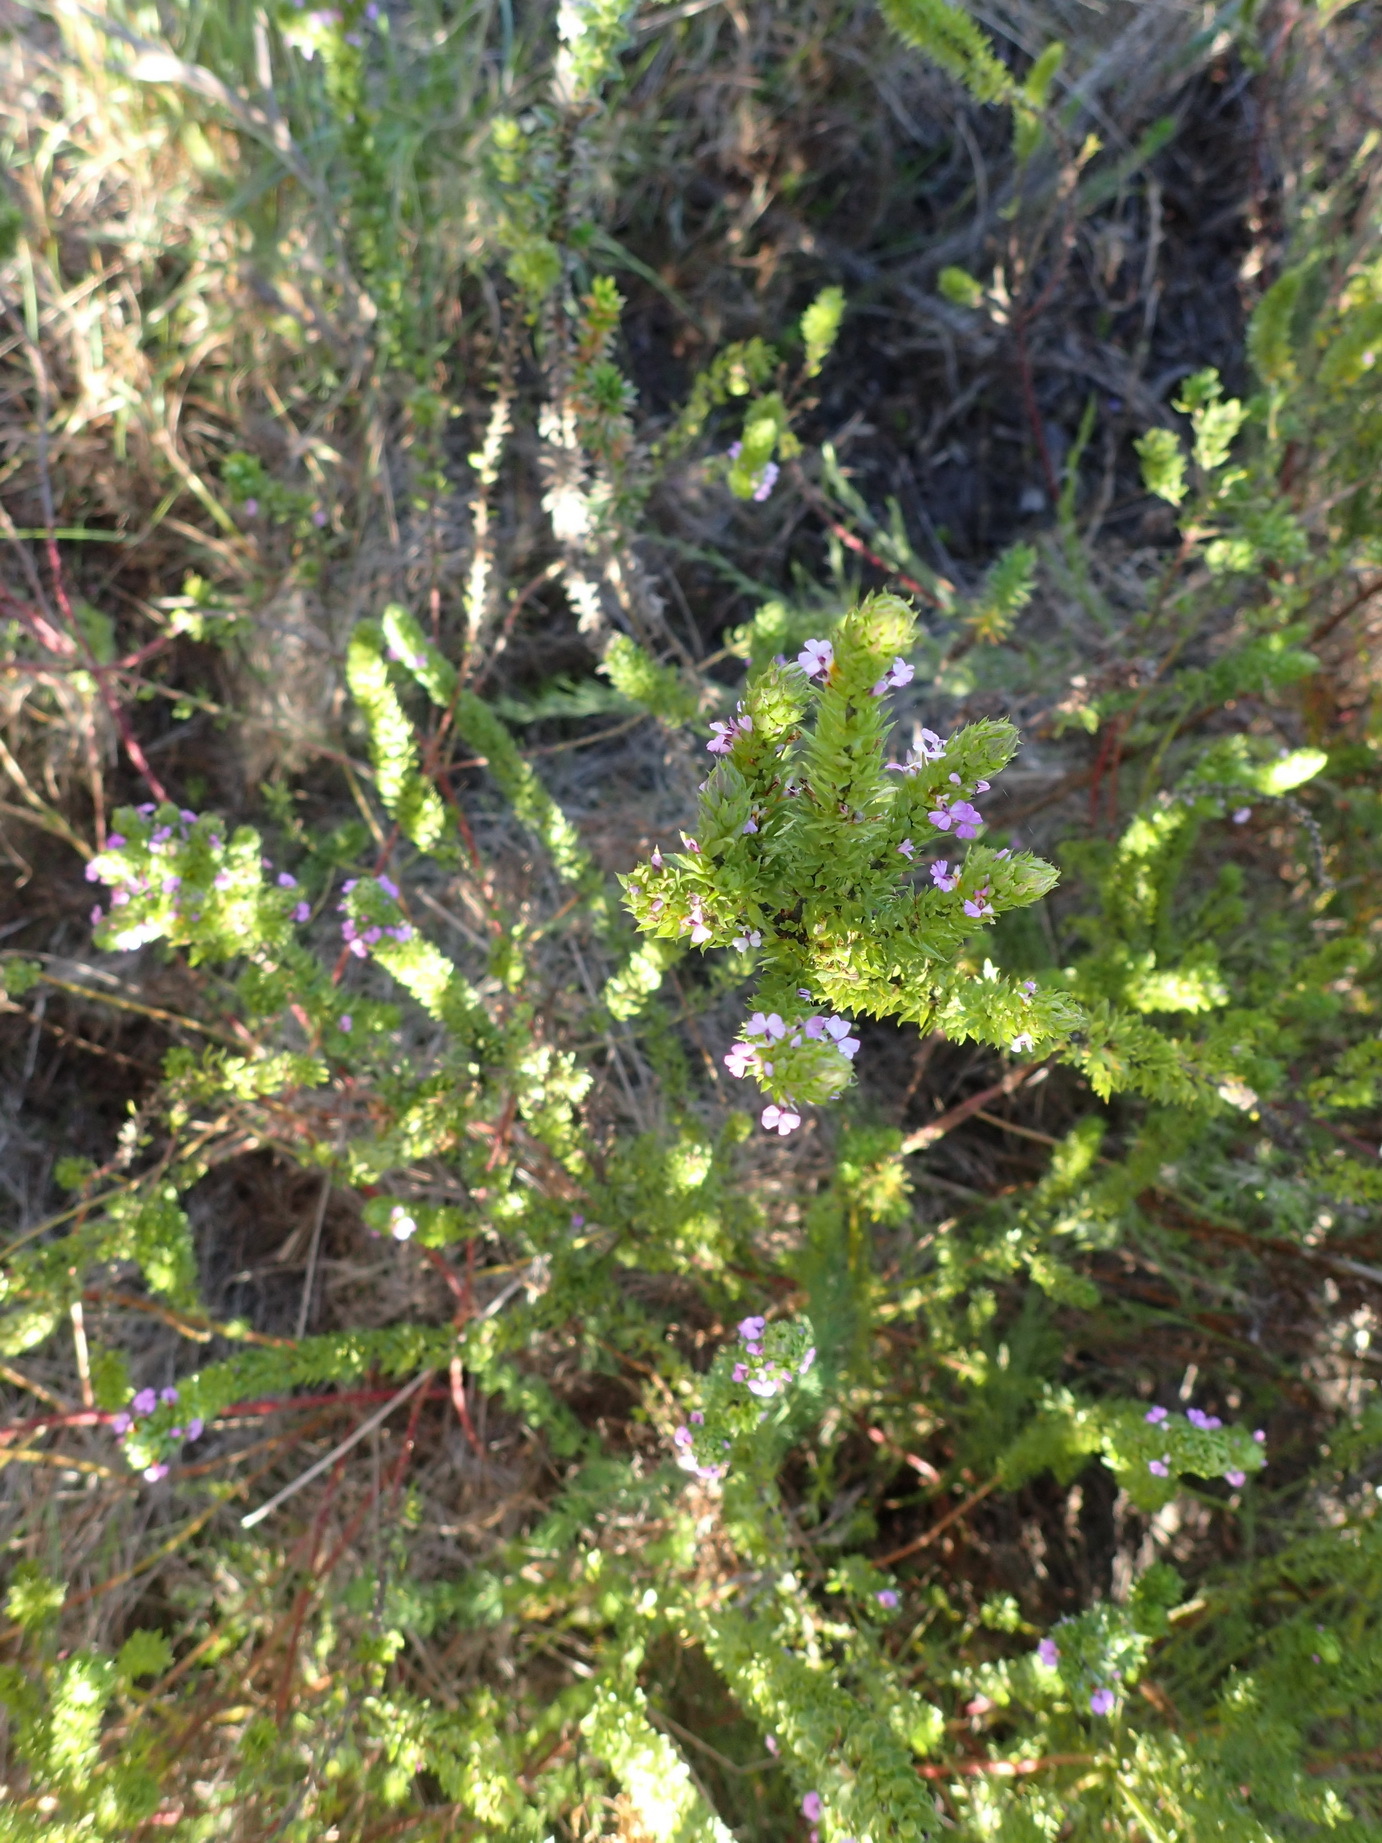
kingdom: Plantae
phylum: Tracheophyta
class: Magnoliopsida
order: Fabales
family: Polygalaceae
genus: Muraltia
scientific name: Muraltia alopecuroides
